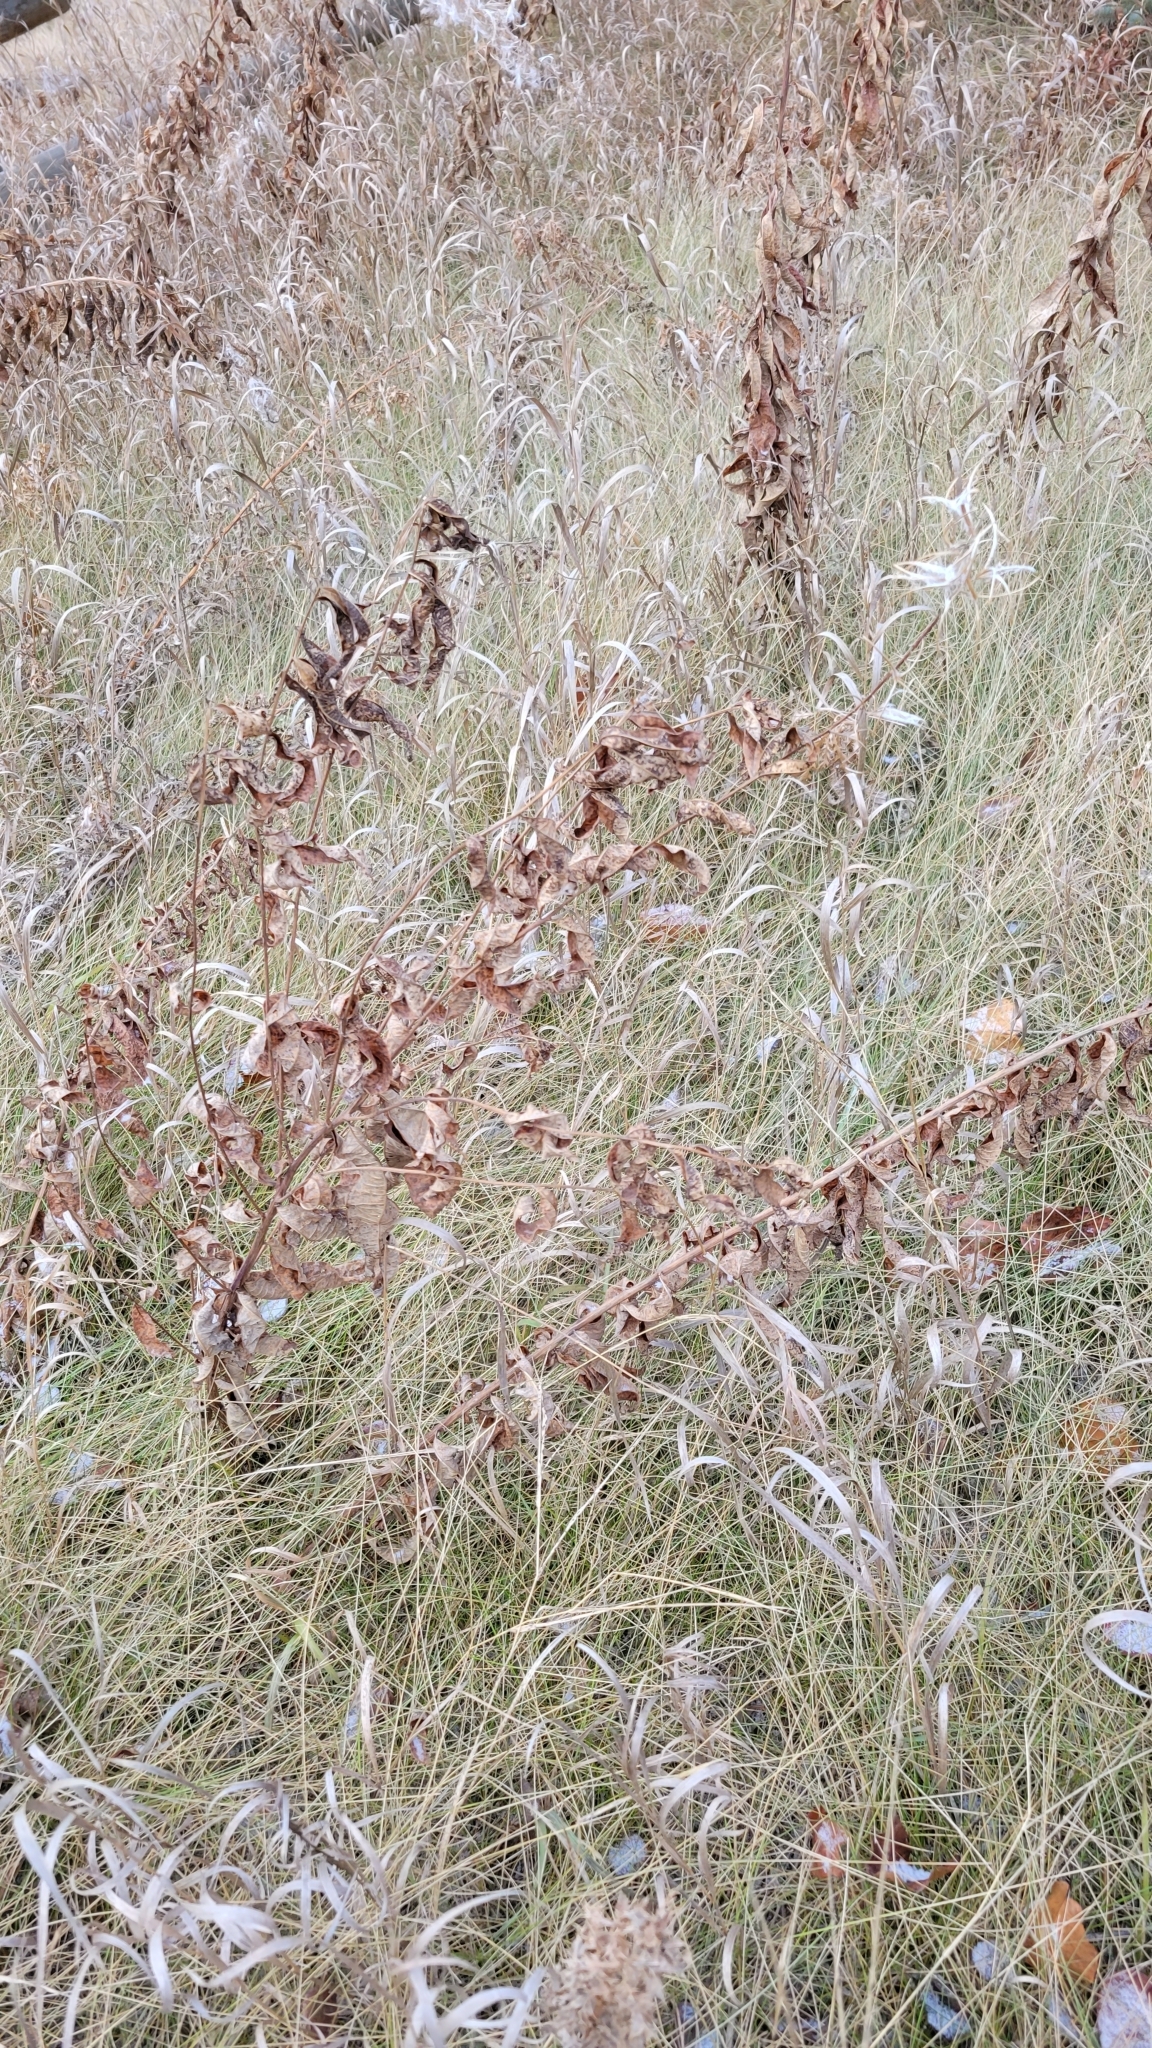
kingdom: Plantae
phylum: Tracheophyta
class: Magnoliopsida
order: Myrtales
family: Onagraceae
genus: Chamaenerion
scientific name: Chamaenerion angustifolium
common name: Fireweed
